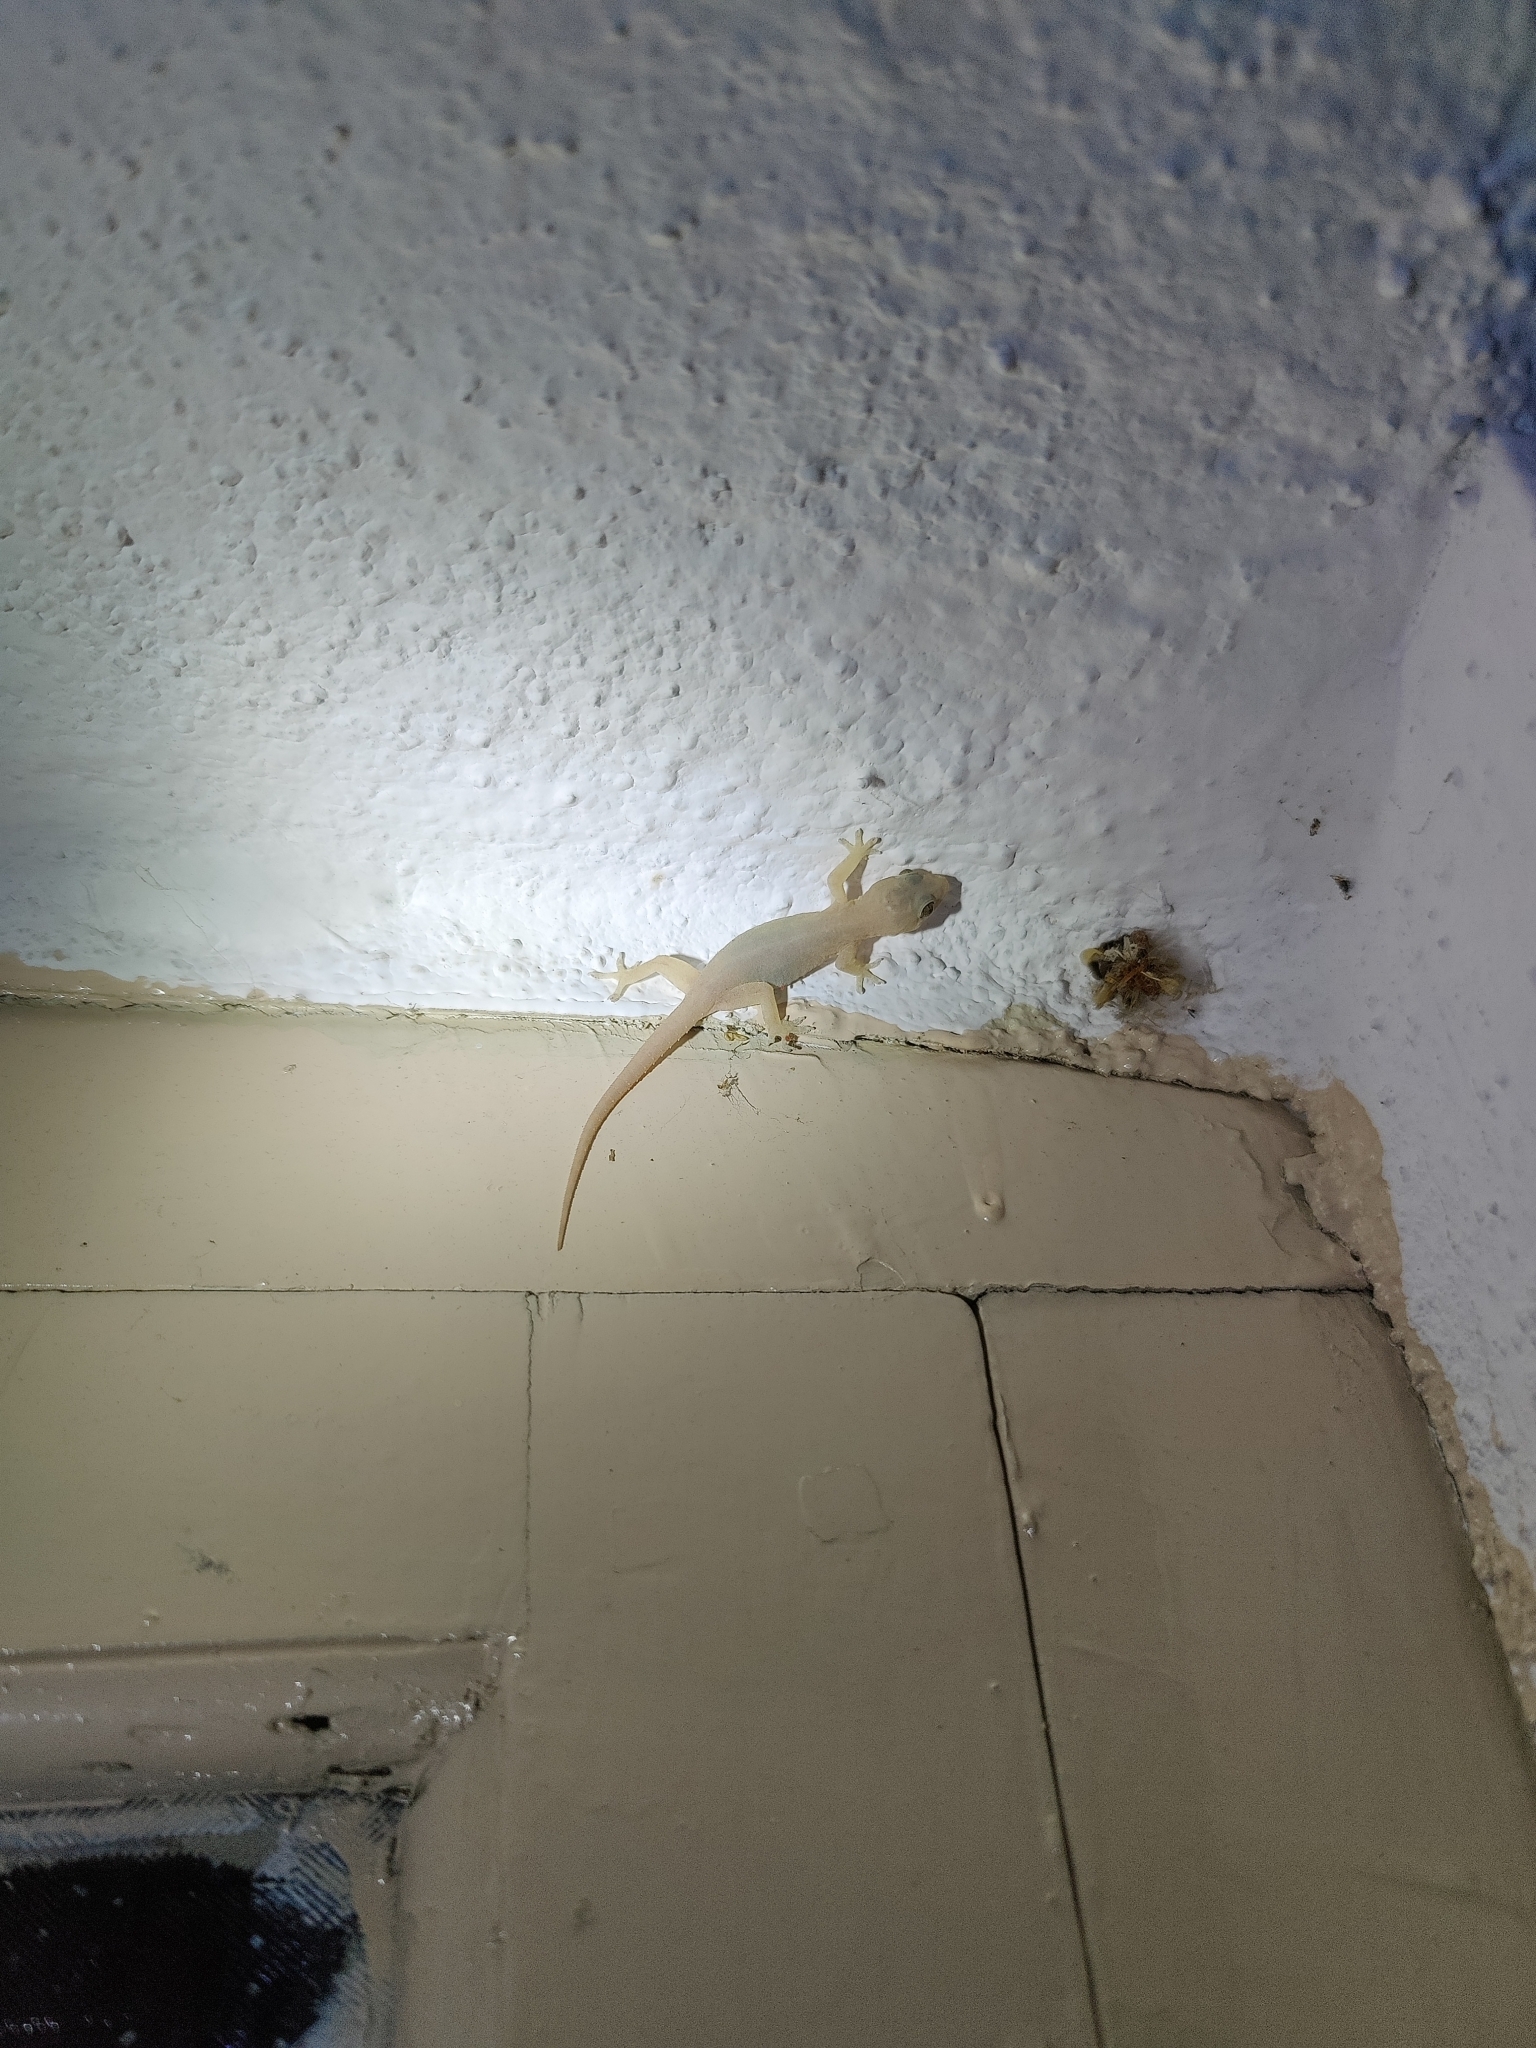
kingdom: Animalia
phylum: Chordata
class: Squamata
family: Gekkonidae
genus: Hemidactylus
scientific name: Hemidactylus frenatus
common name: Common house gecko
